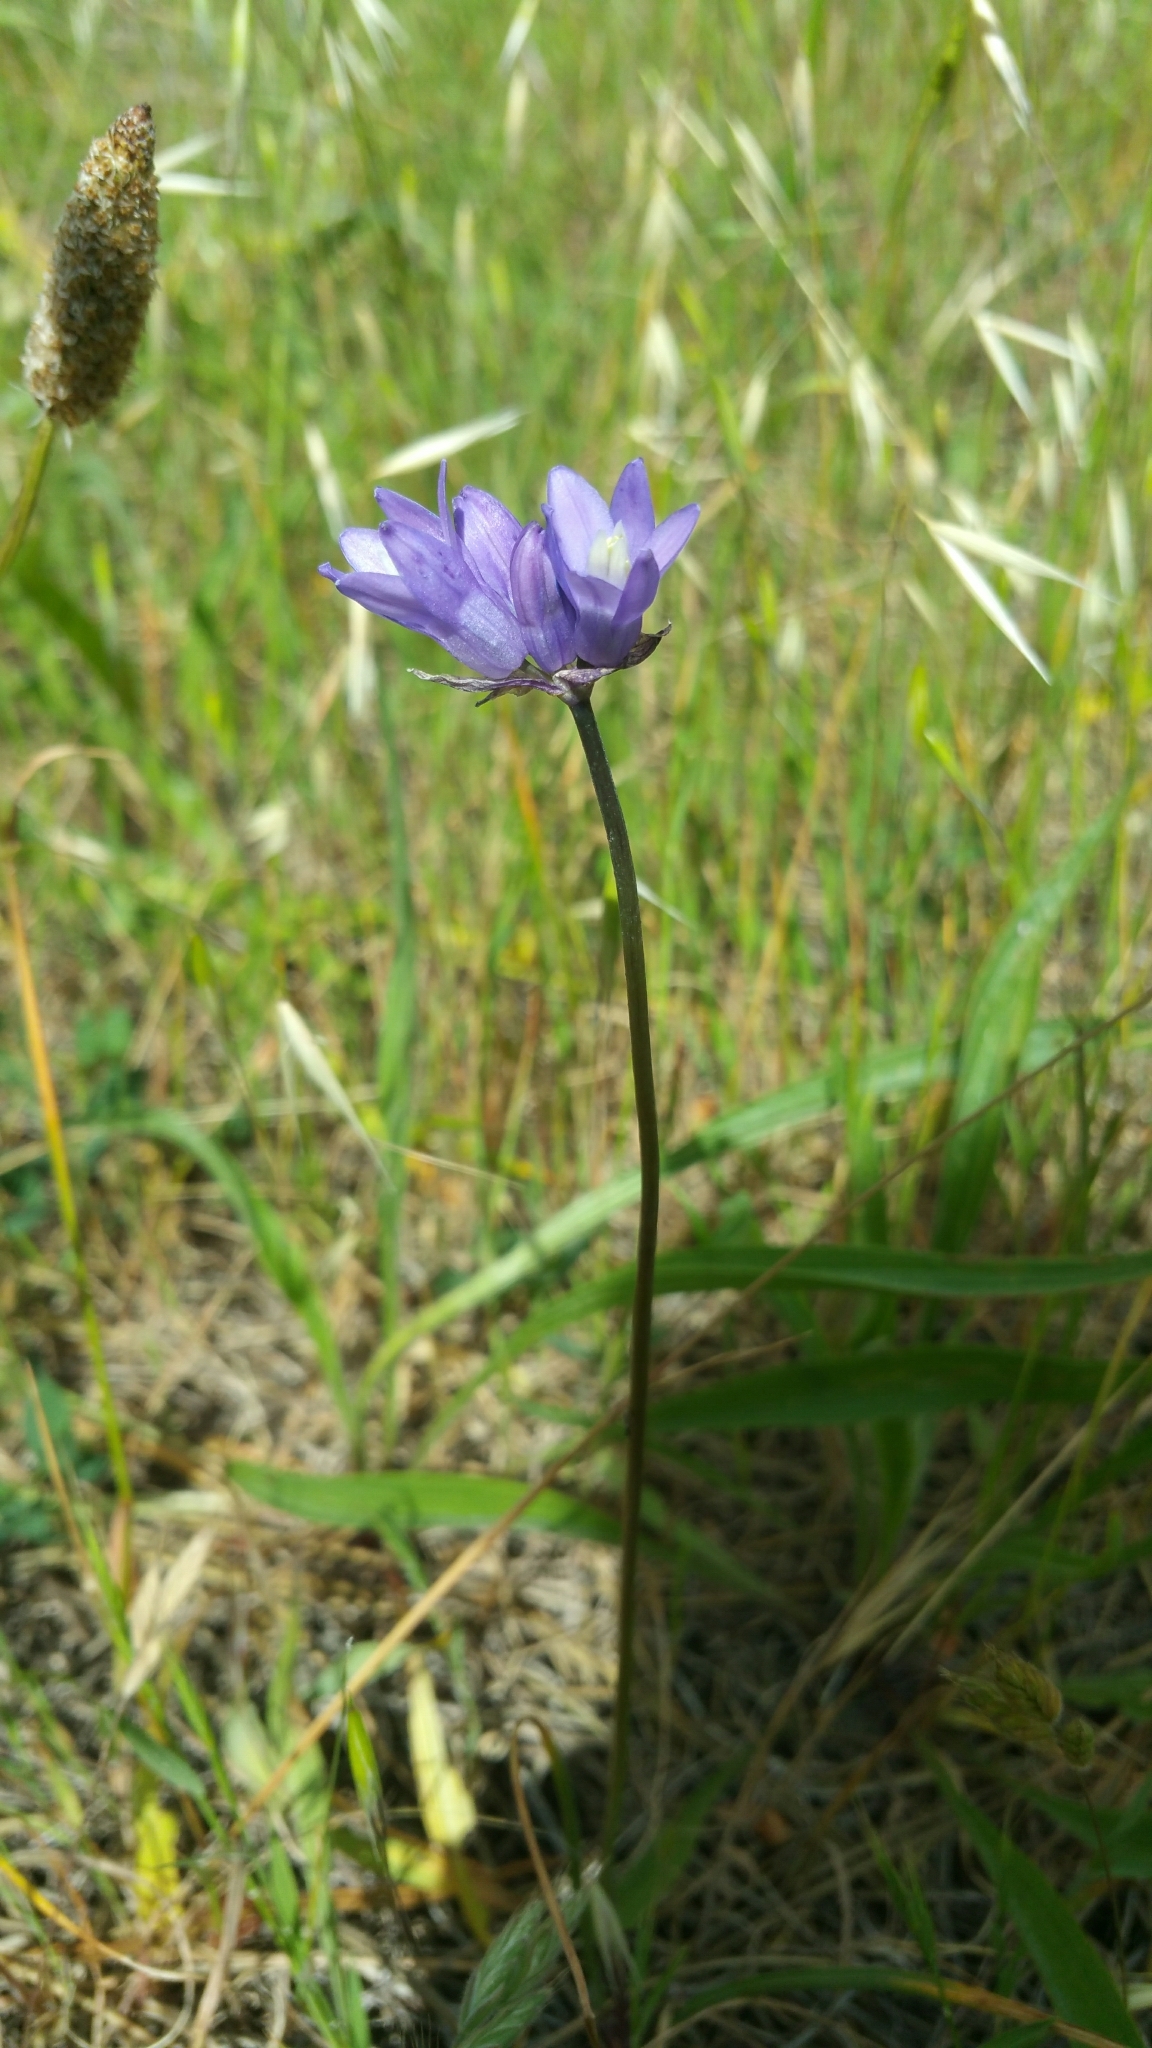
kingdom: Plantae
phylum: Tracheophyta
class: Liliopsida
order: Asparagales
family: Asparagaceae
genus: Dipterostemon
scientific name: Dipterostemon capitatus
